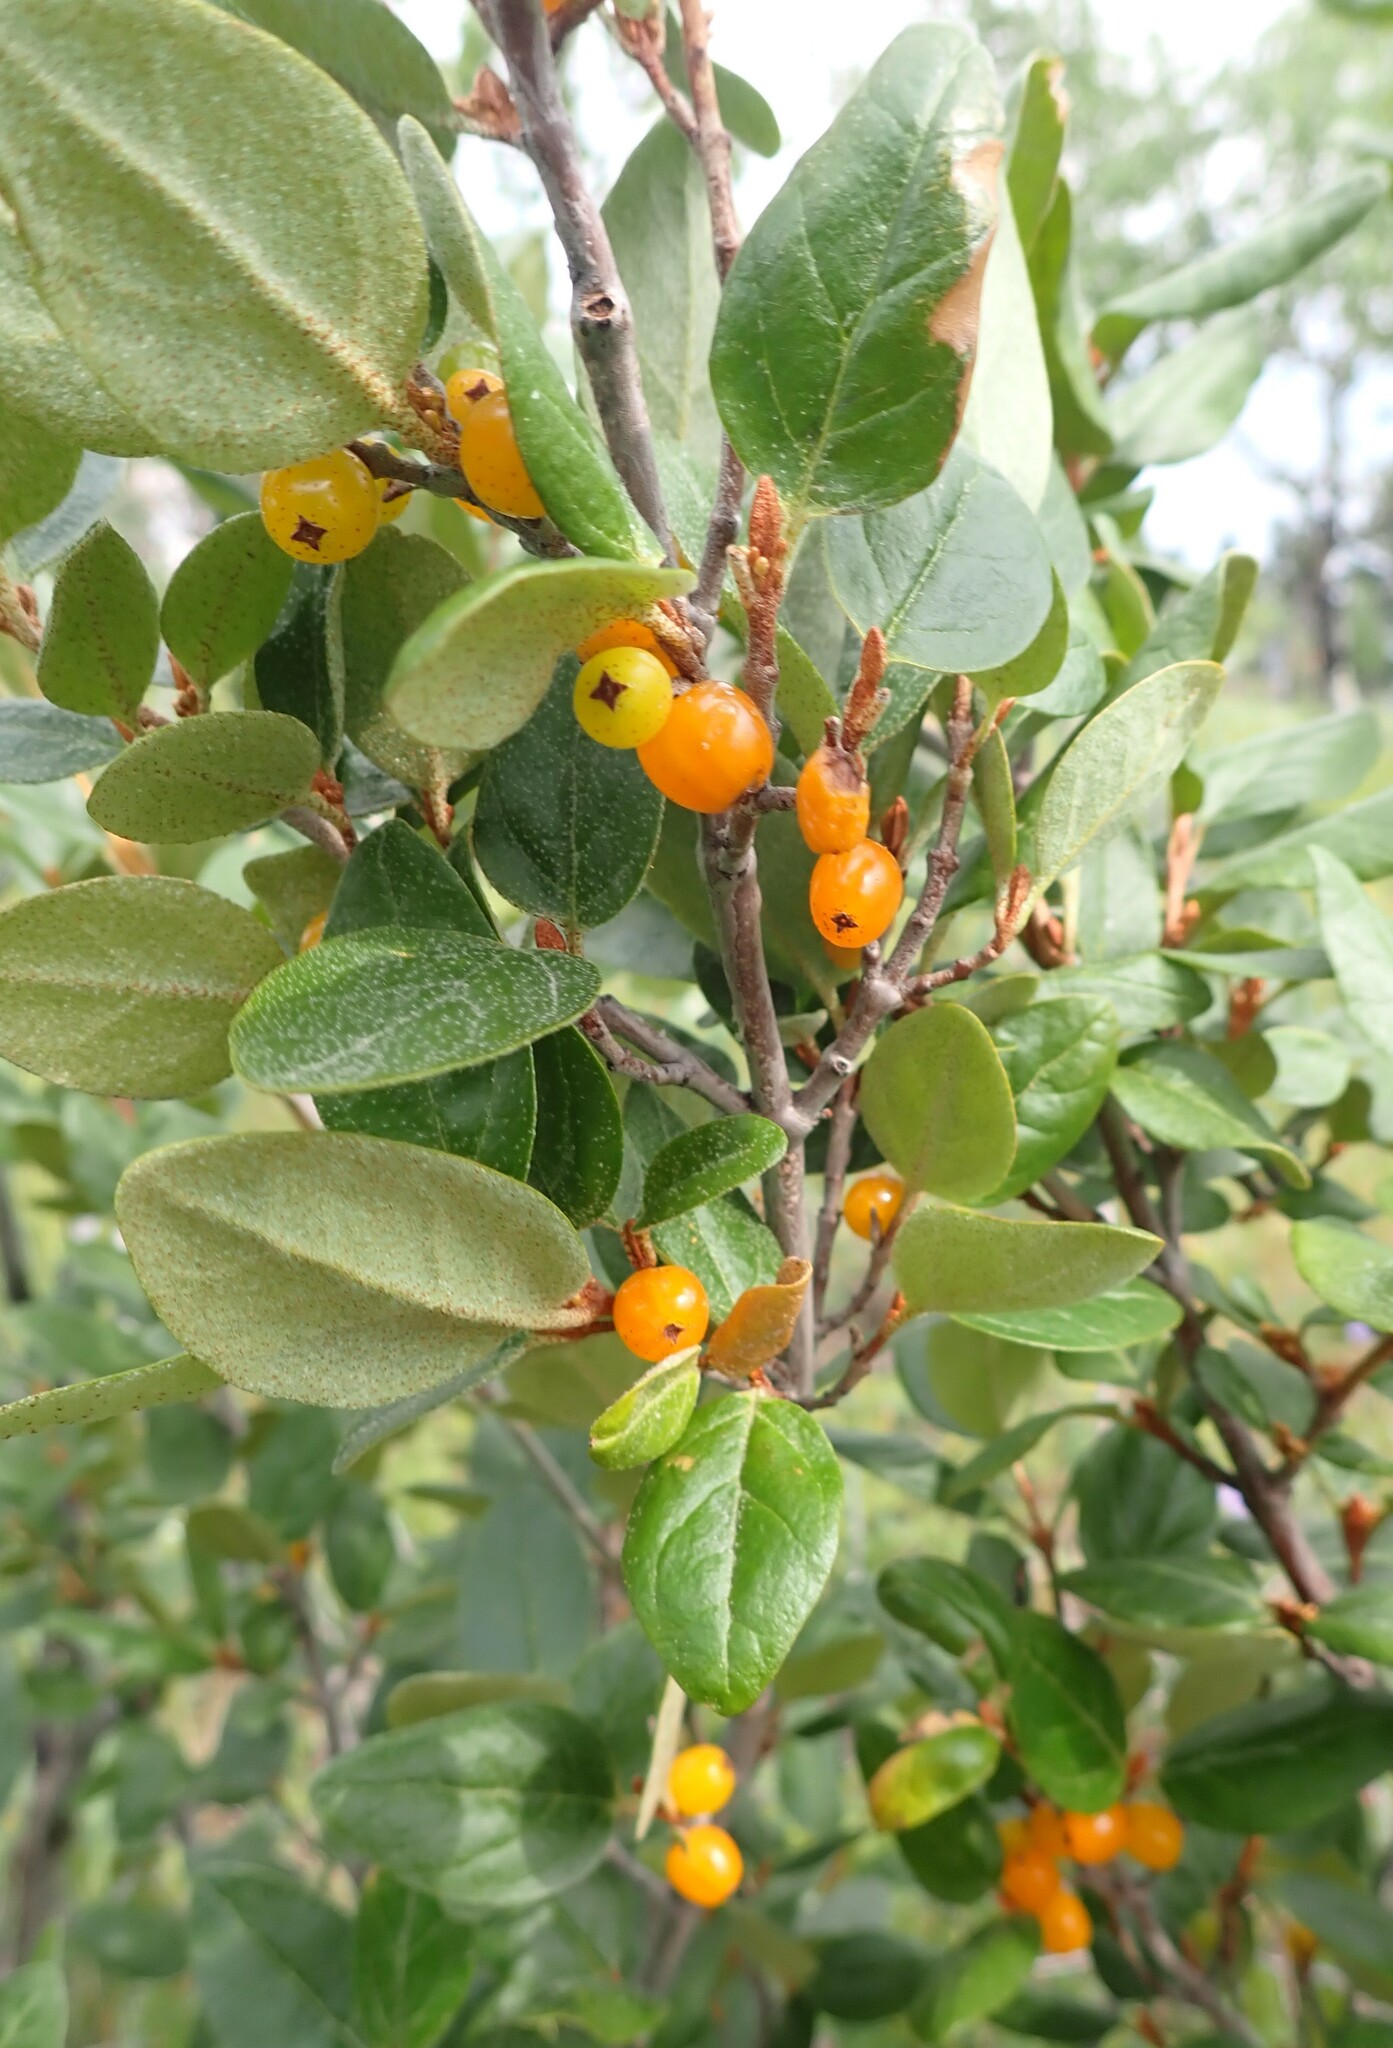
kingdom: Plantae
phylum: Tracheophyta
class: Magnoliopsida
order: Rosales
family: Elaeagnaceae
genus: Shepherdia
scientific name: Shepherdia canadensis
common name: Soapberry
